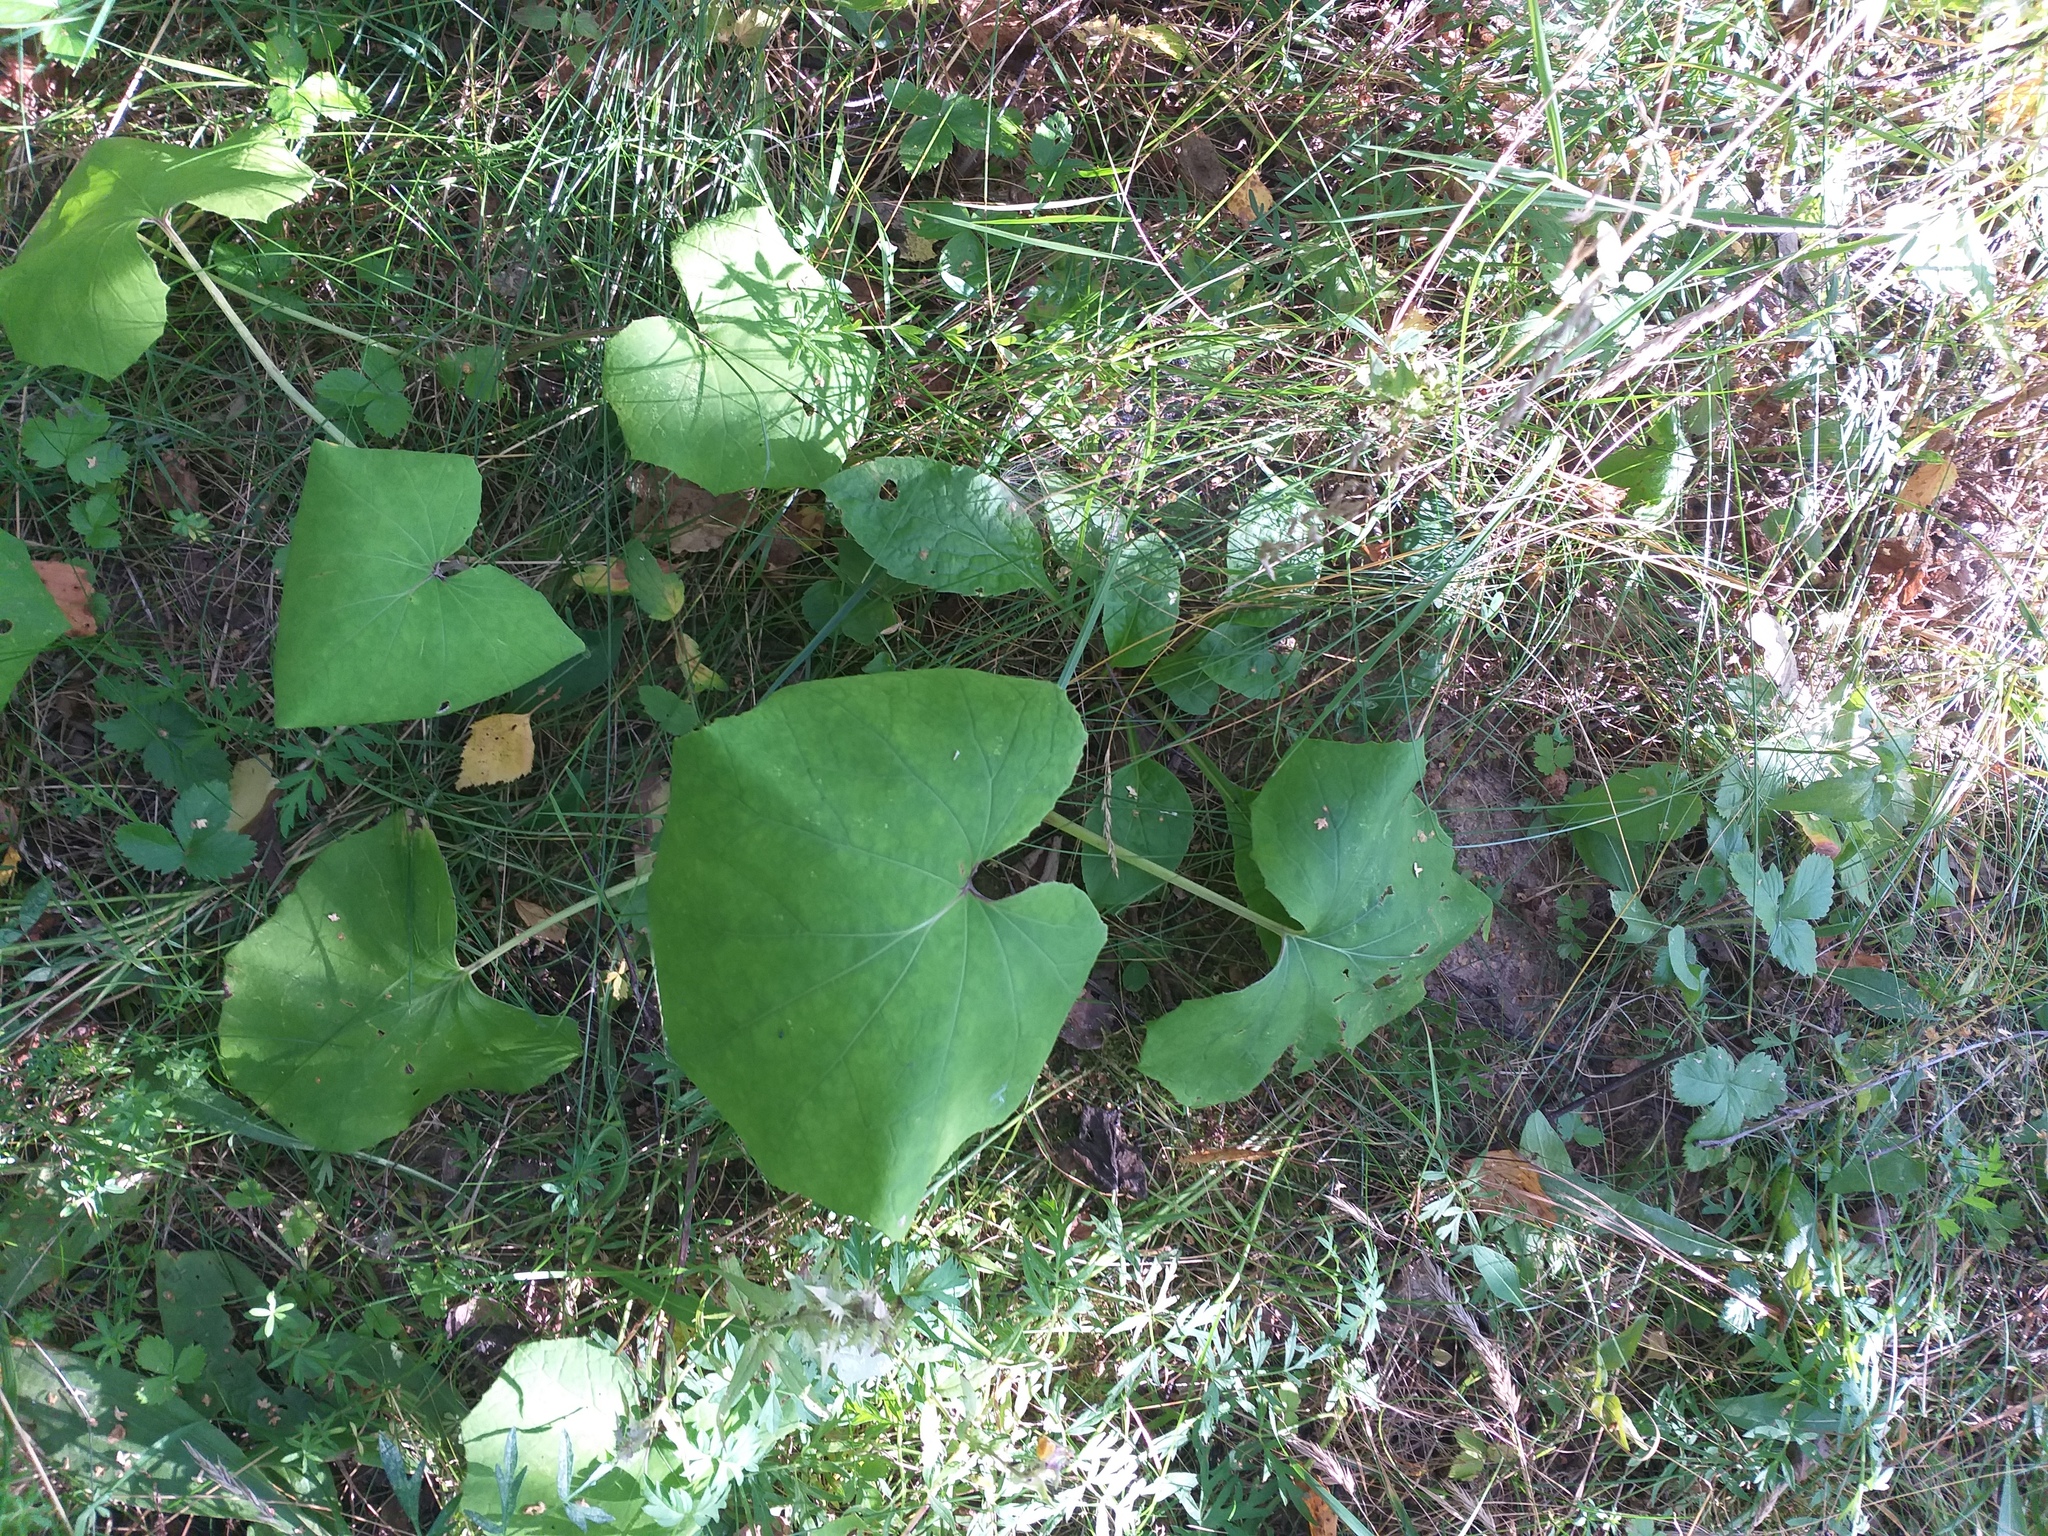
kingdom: Plantae
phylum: Tracheophyta
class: Magnoliopsida
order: Asterales
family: Asteraceae
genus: Tussilago
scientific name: Tussilago farfara
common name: Coltsfoot
